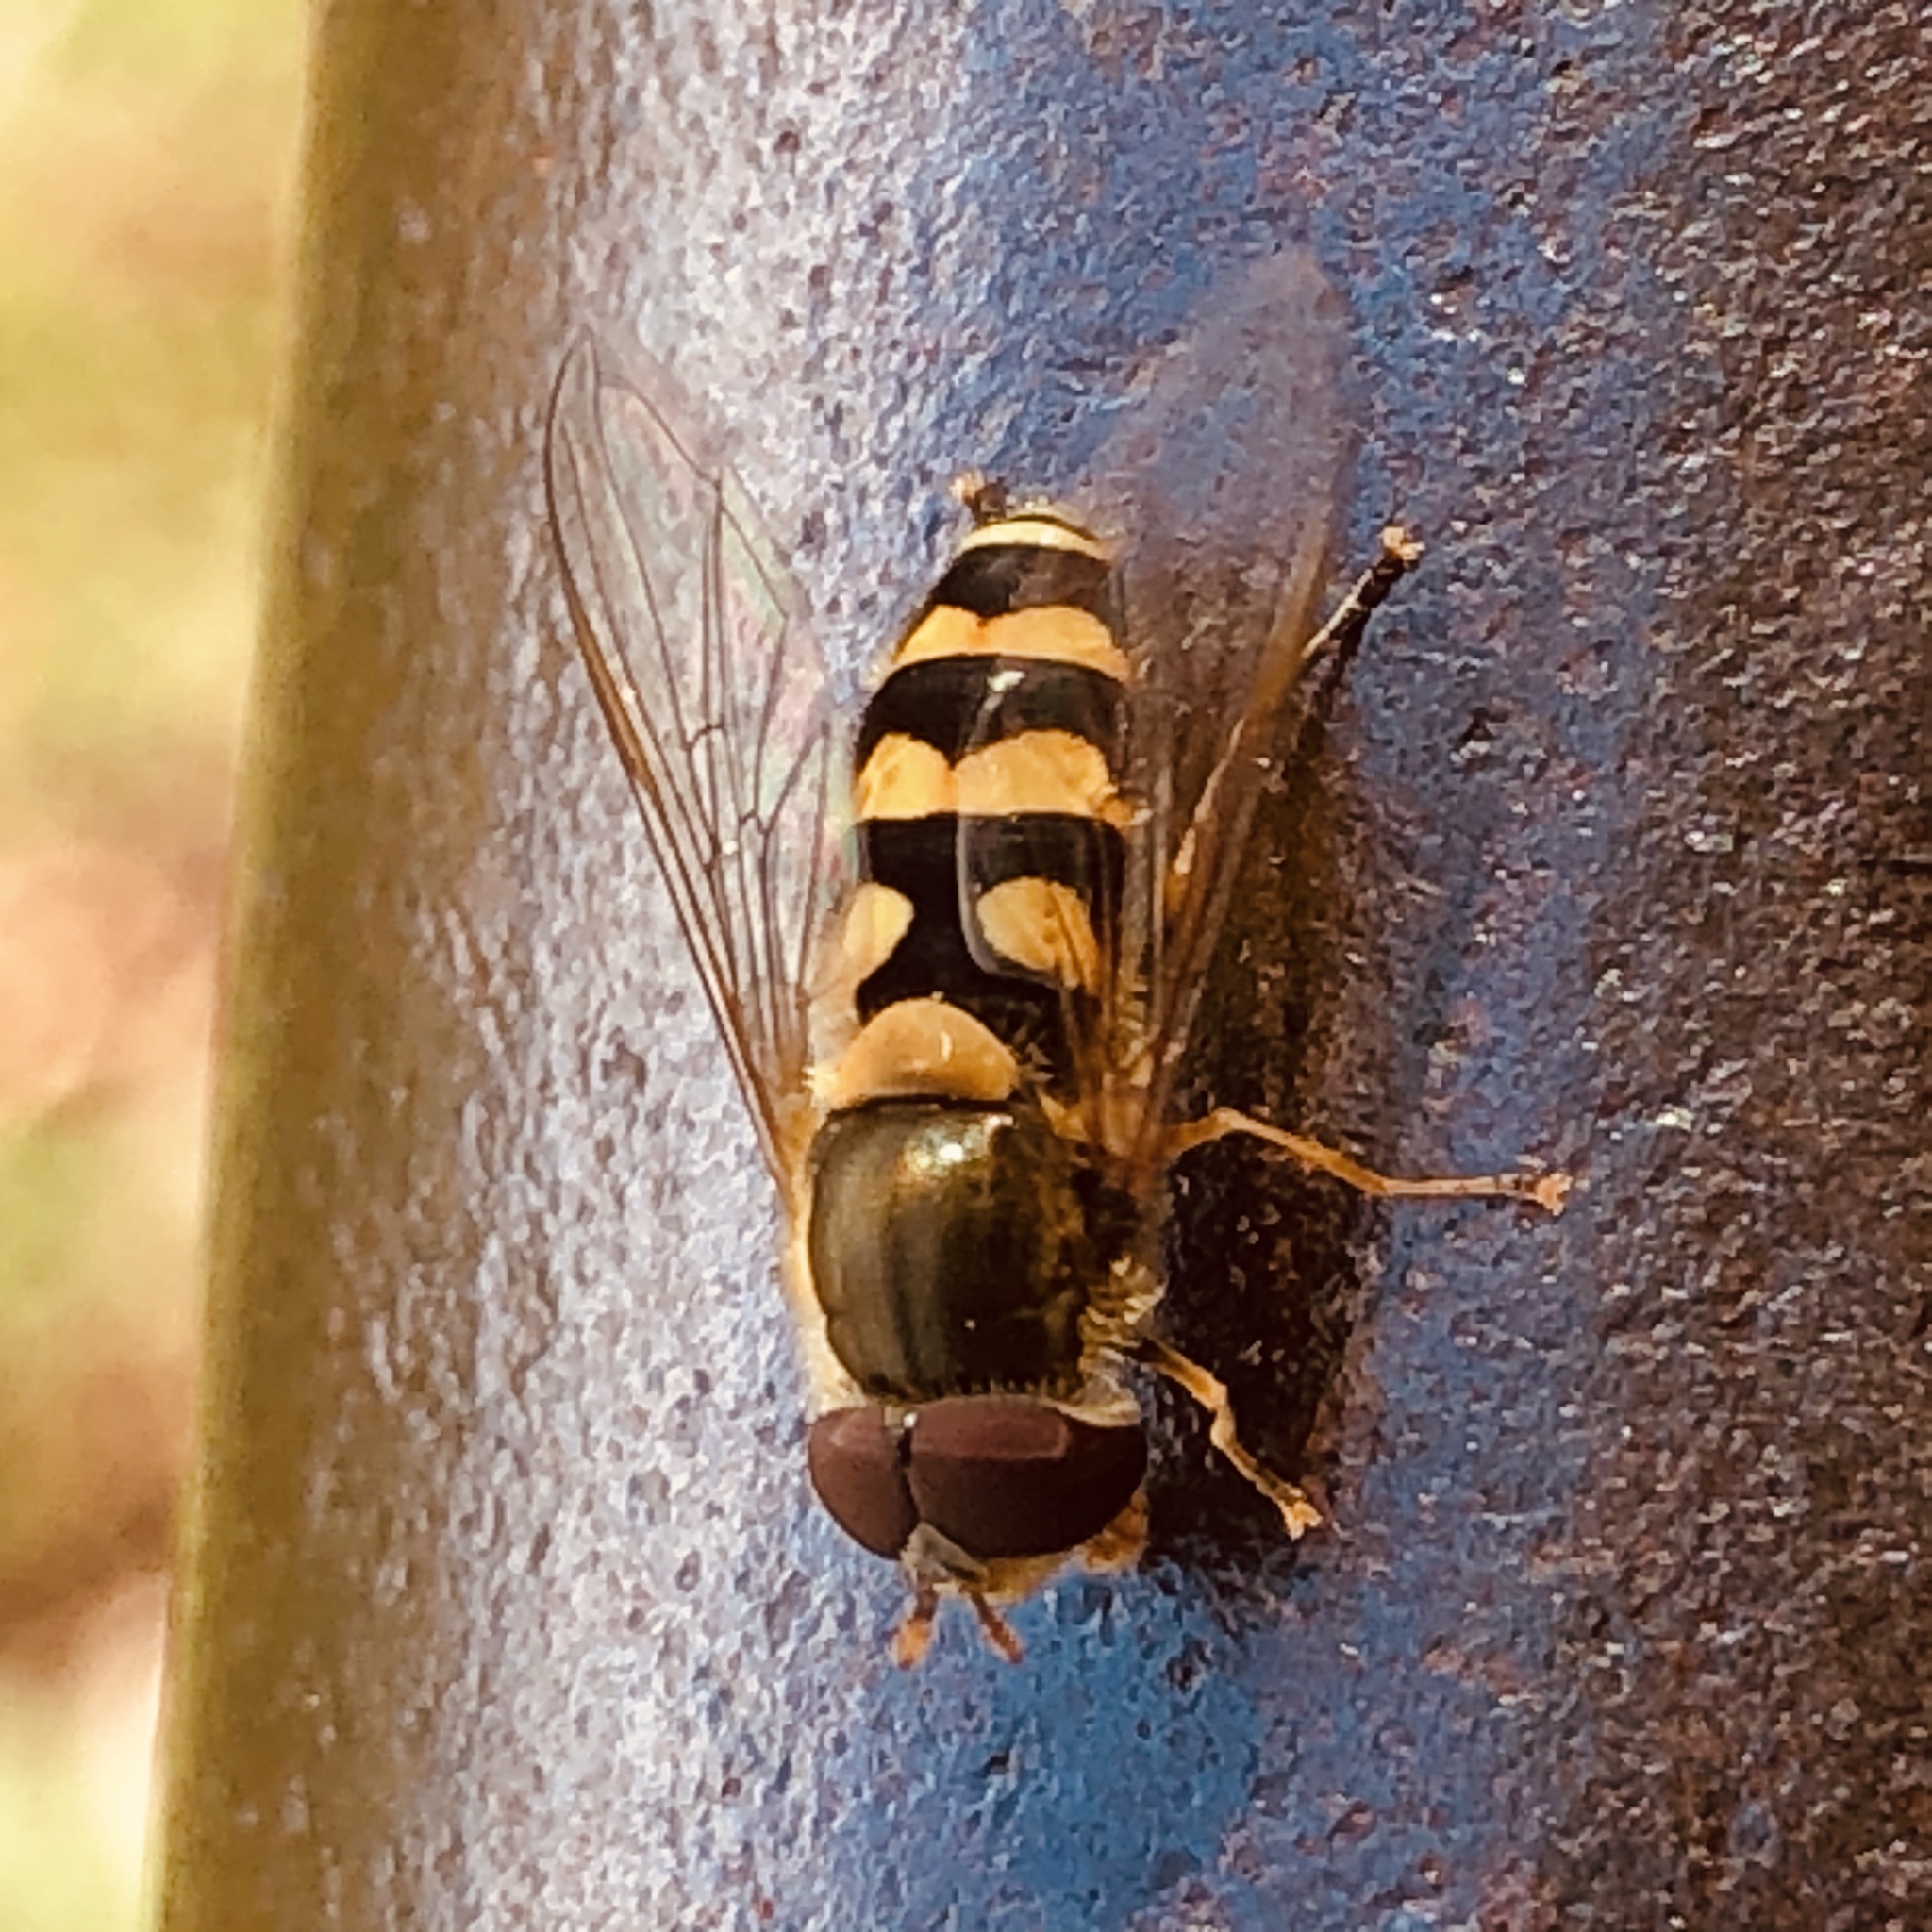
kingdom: Animalia
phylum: Arthropoda
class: Insecta
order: Diptera
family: Syrphidae
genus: Syrphus
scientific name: Syrphus
